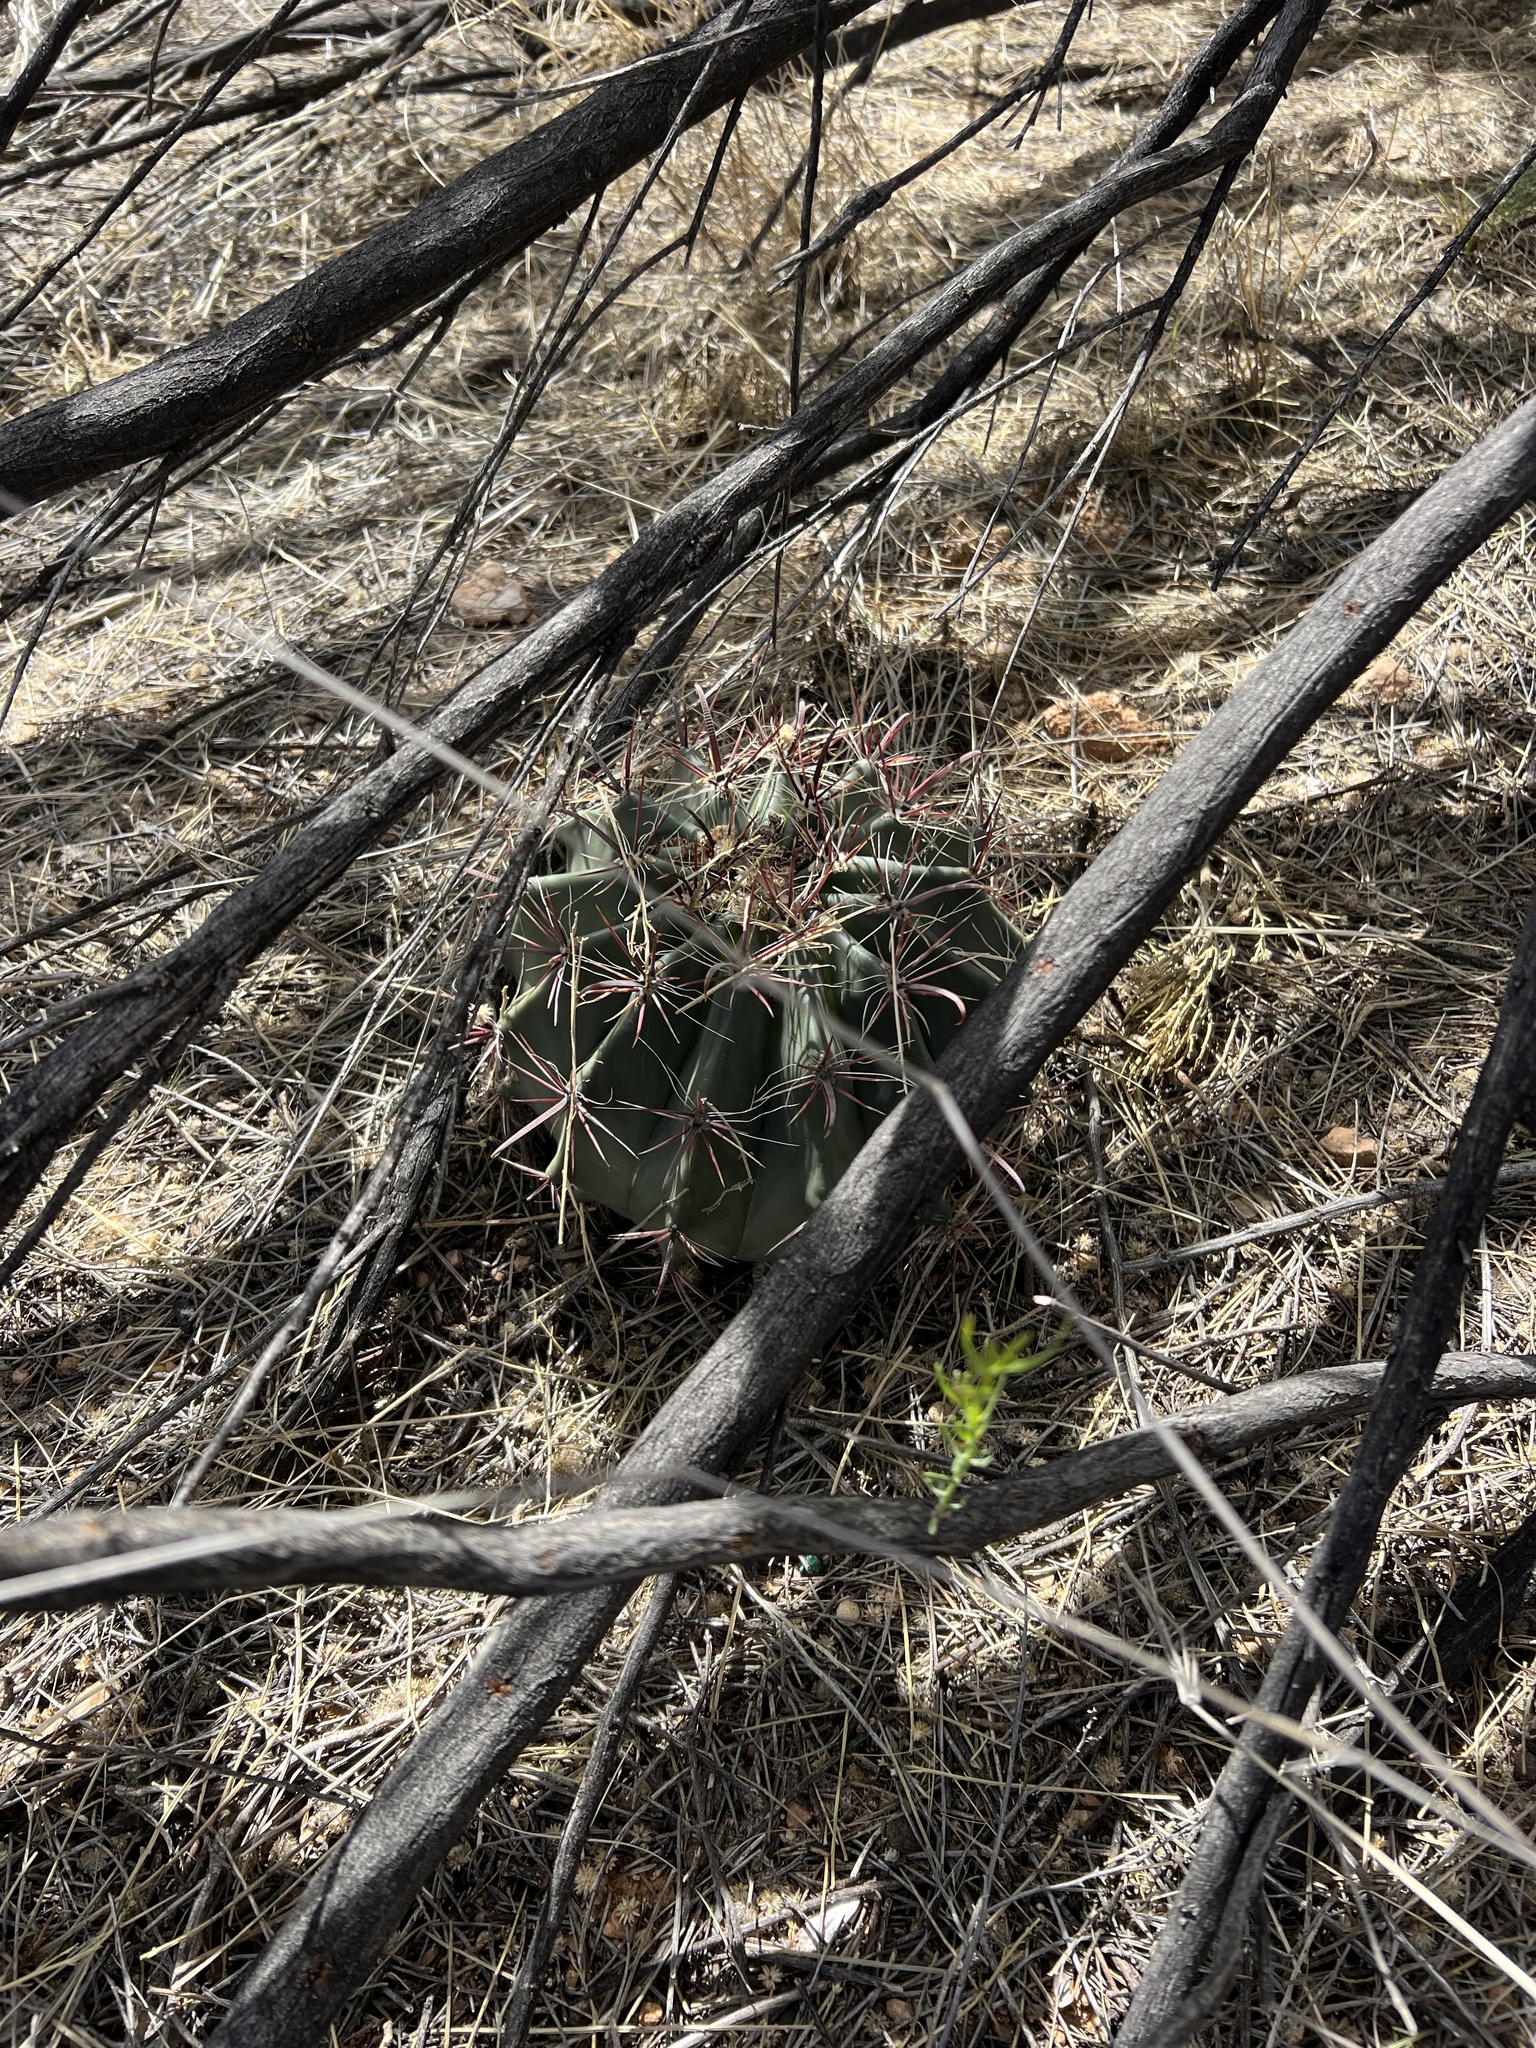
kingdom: Plantae
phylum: Tracheophyta
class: Magnoliopsida
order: Caryophyllales
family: Cactaceae
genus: Ferocactus
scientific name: Ferocactus wislizeni
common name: Candy barrel cactus
